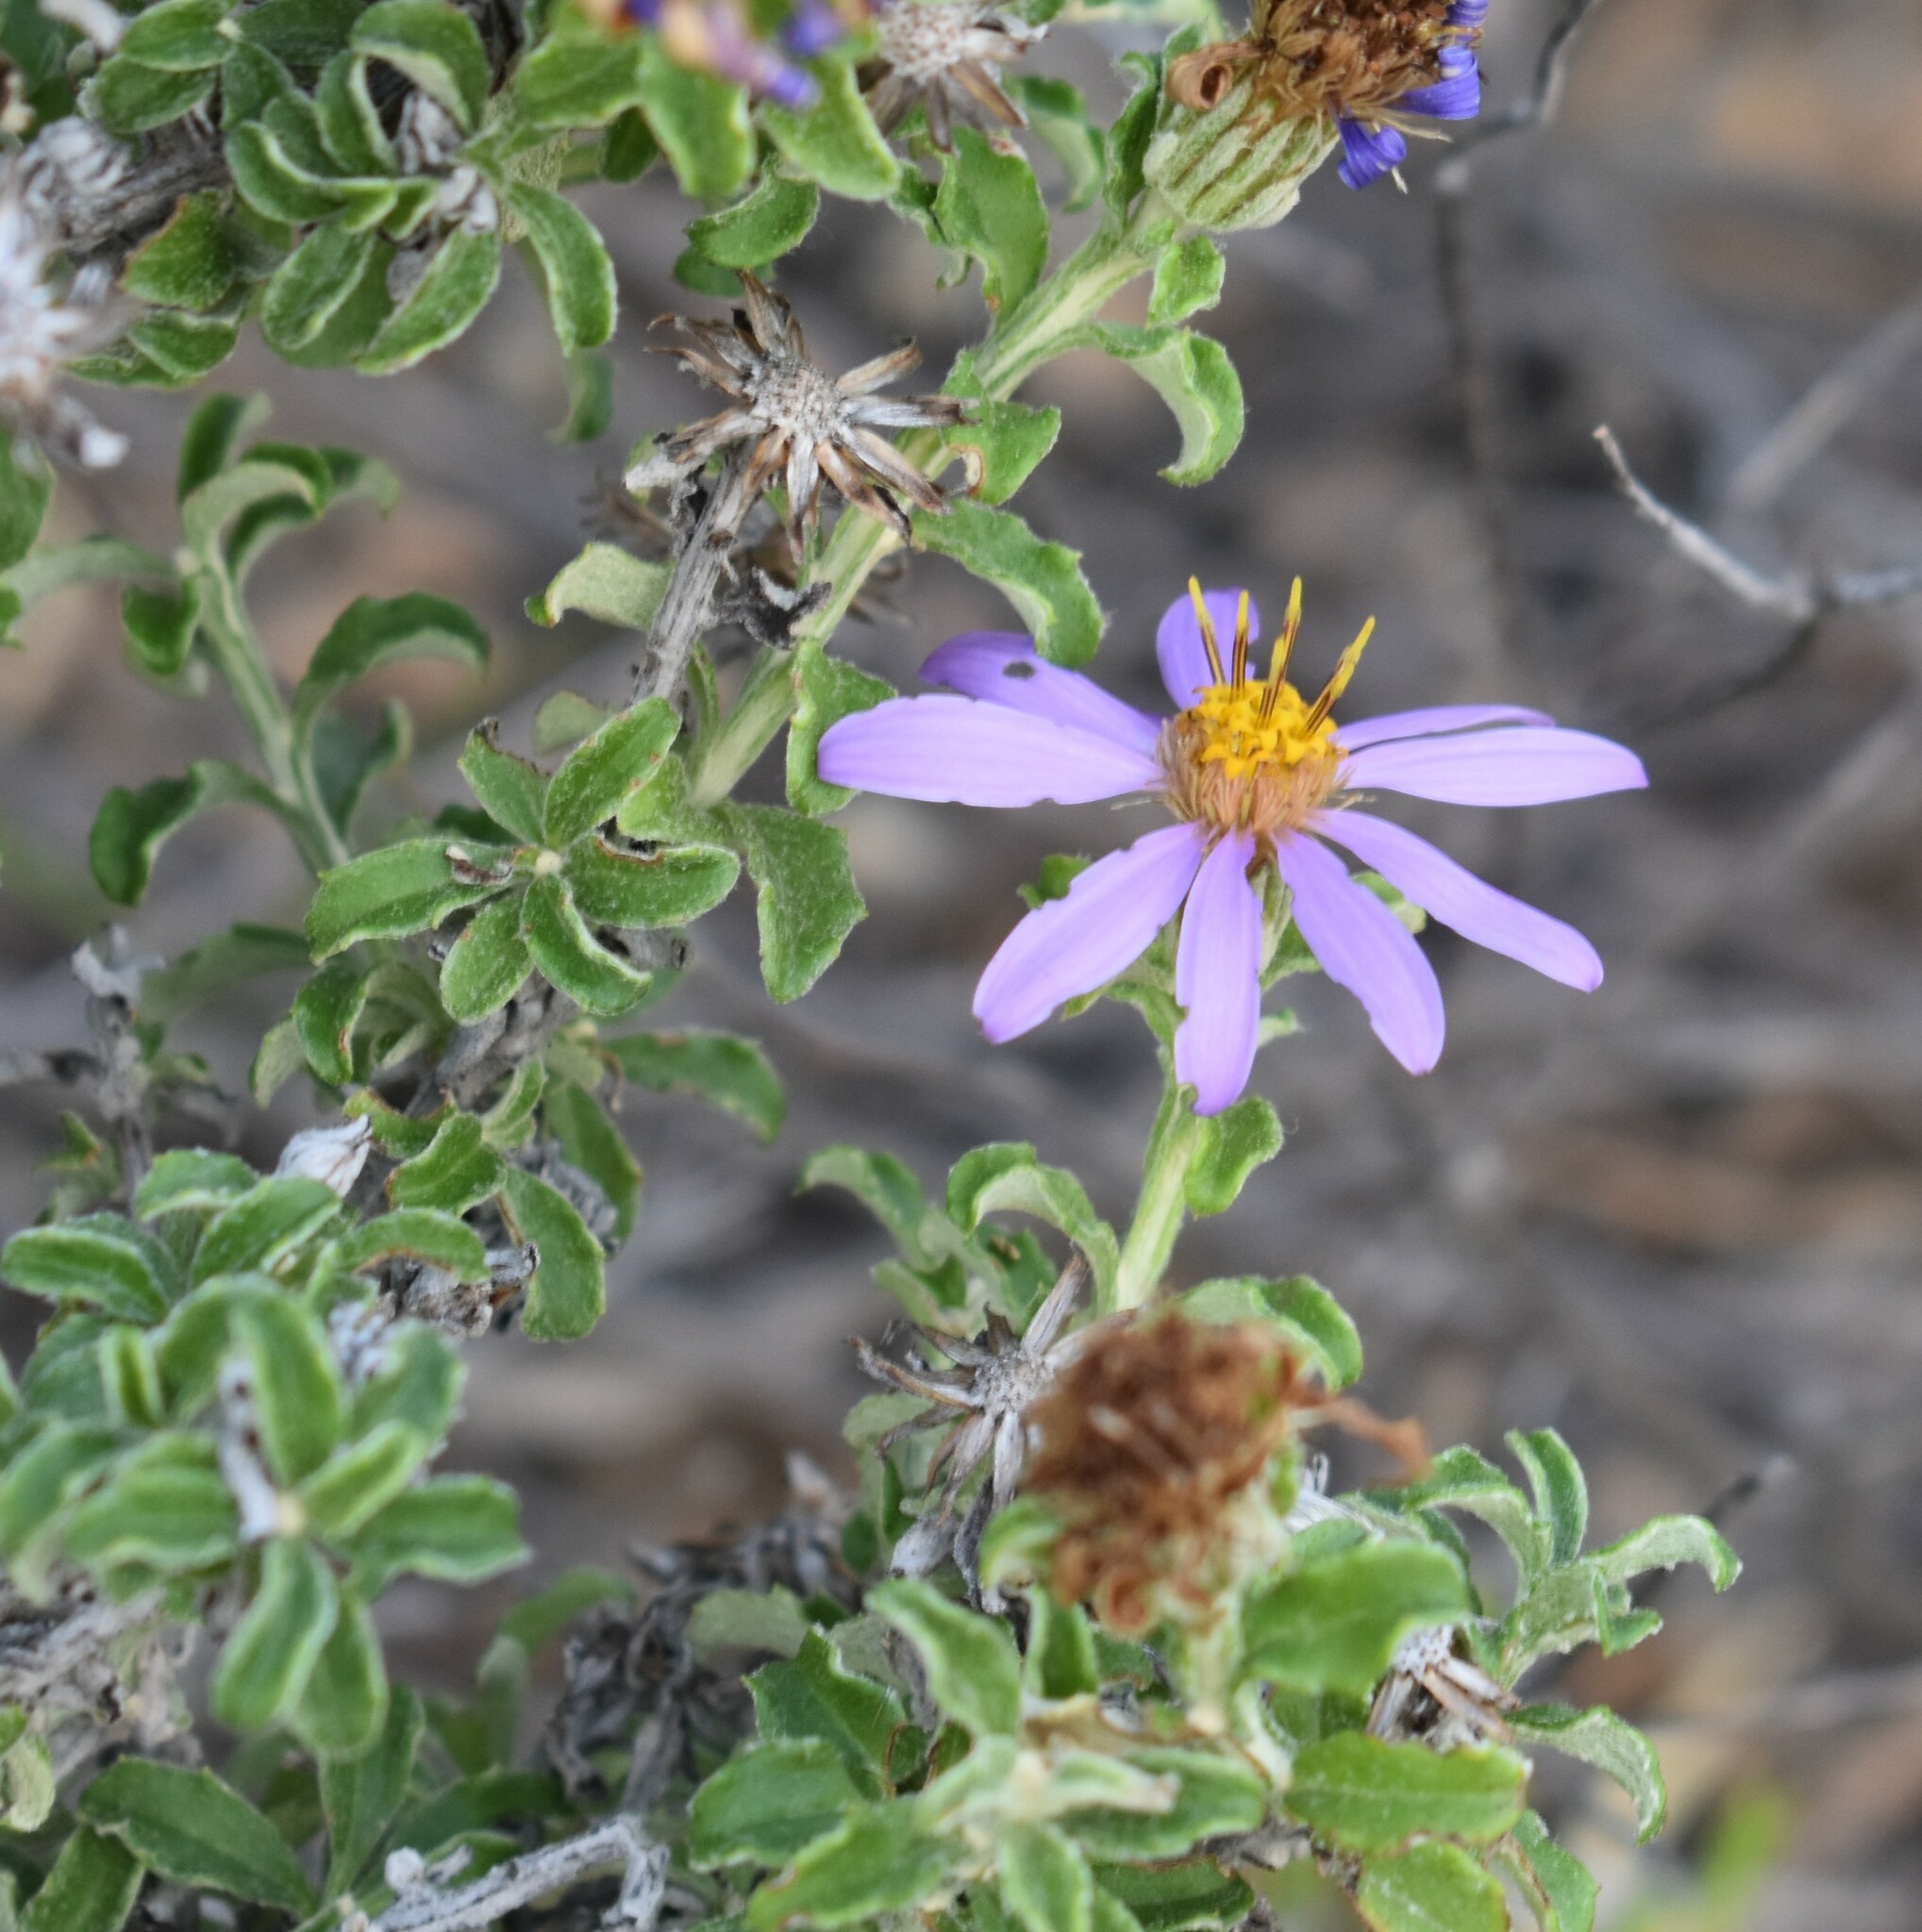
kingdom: Plantae
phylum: Tracheophyta
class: Magnoliopsida
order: Asterales
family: Asteraceae
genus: Printzia
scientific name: Printzia polifolia
